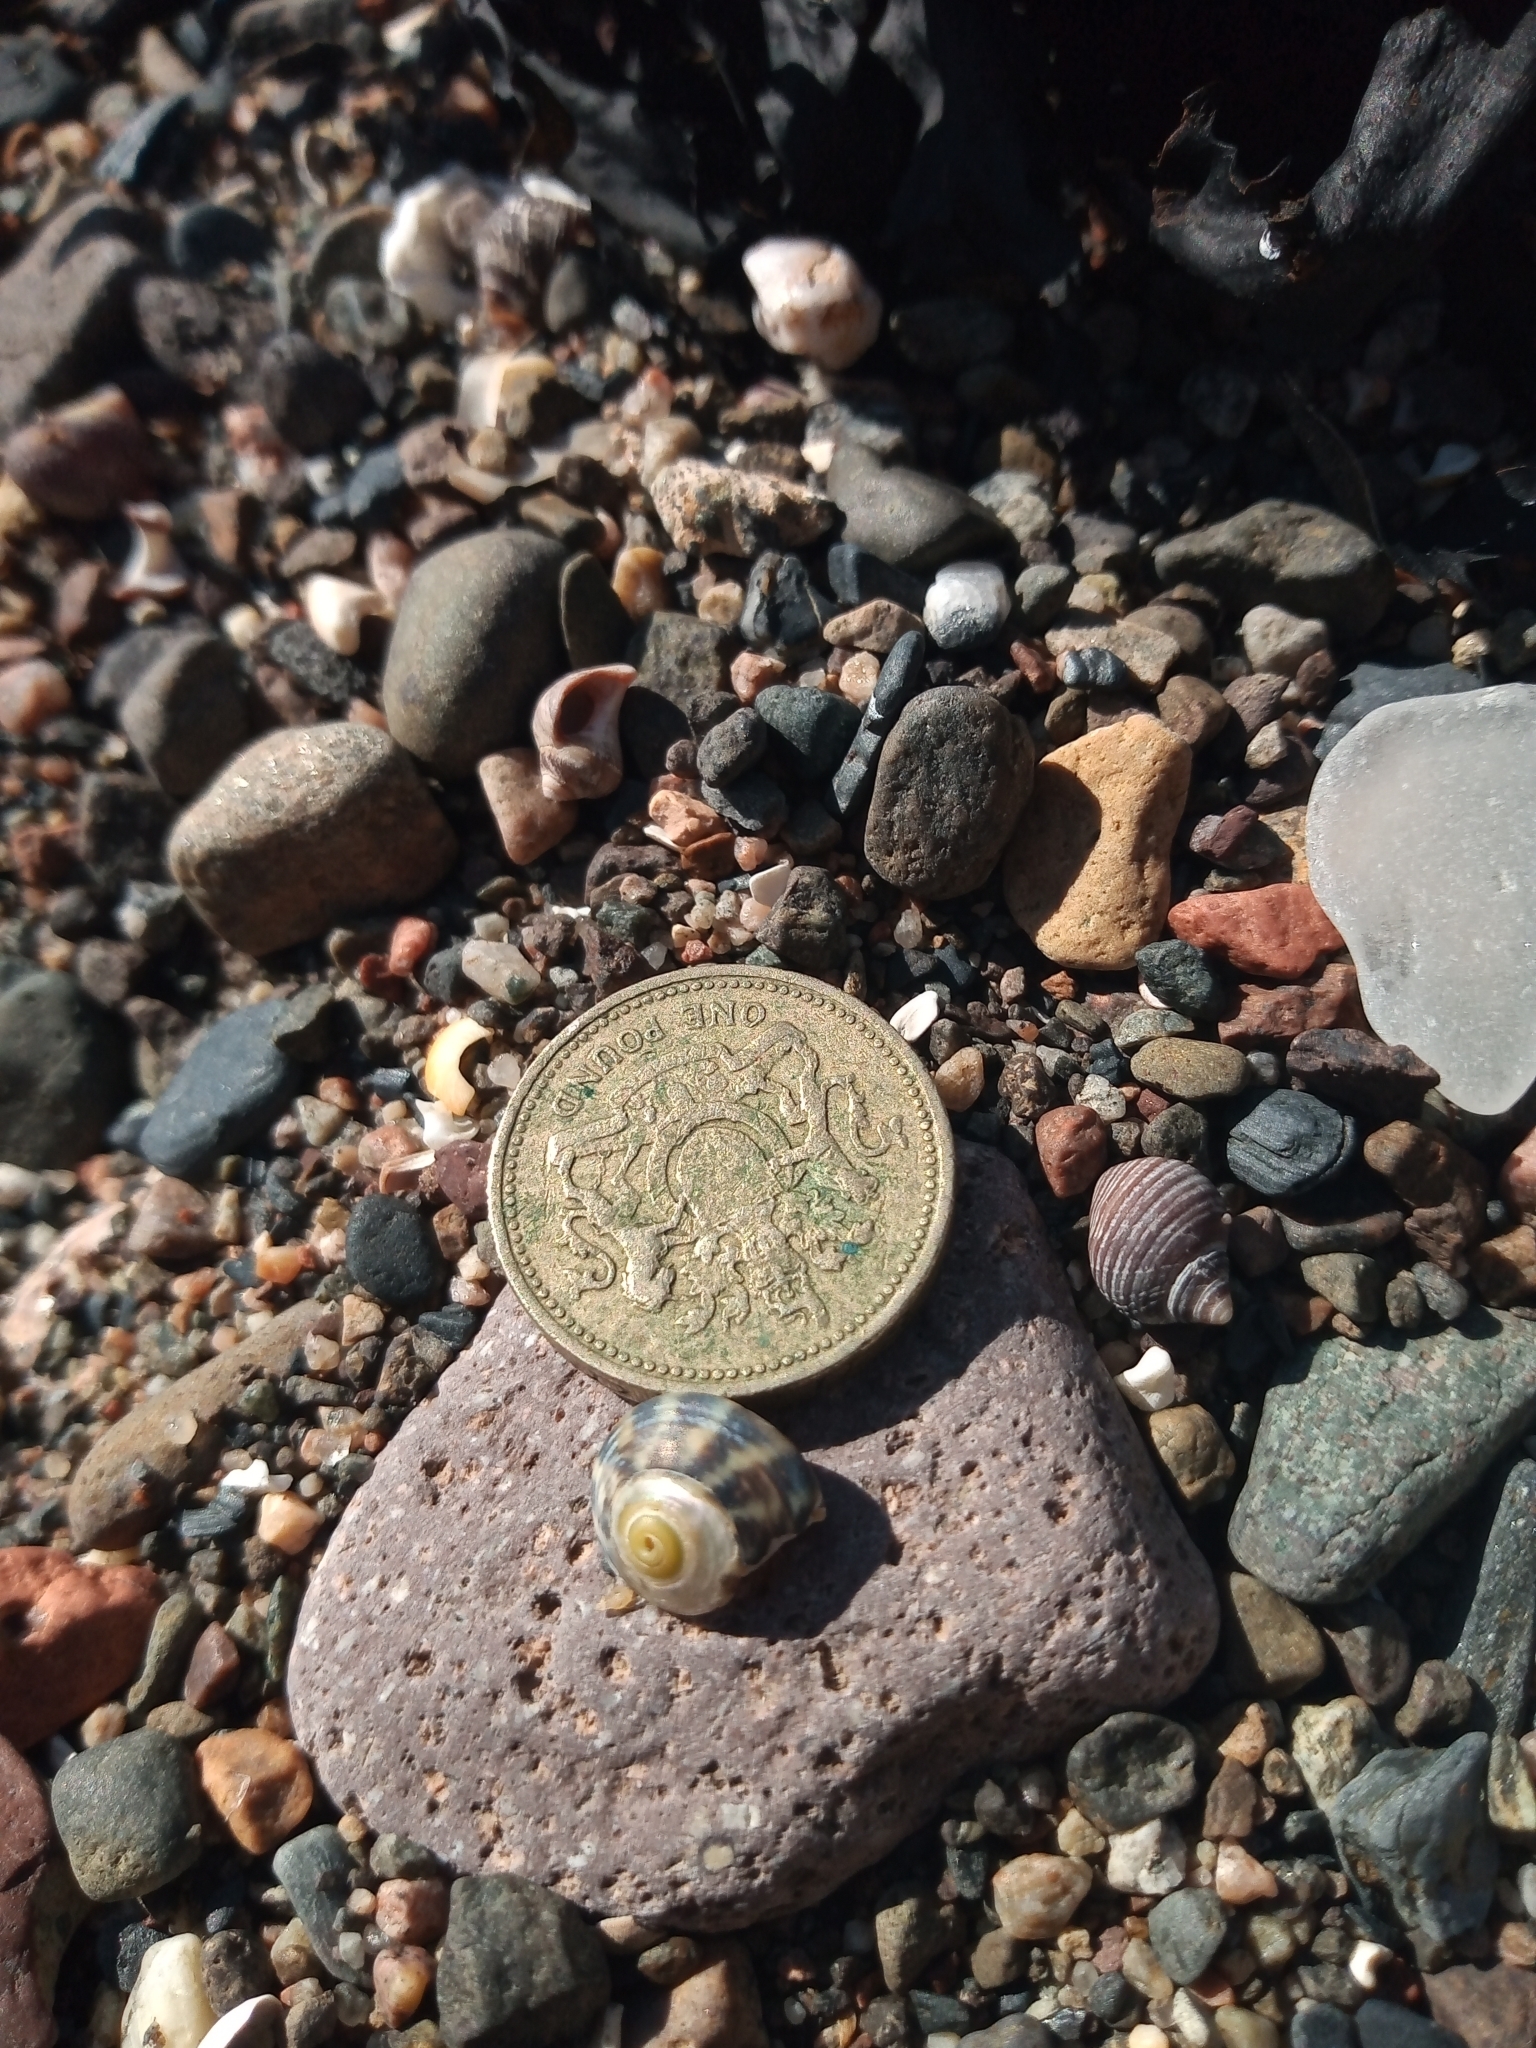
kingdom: Animalia
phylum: Mollusca
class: Gastropoda
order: Trochida
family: Trochidae
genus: Steromphala
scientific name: Steromphala umbilicalis
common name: Flat top shell
